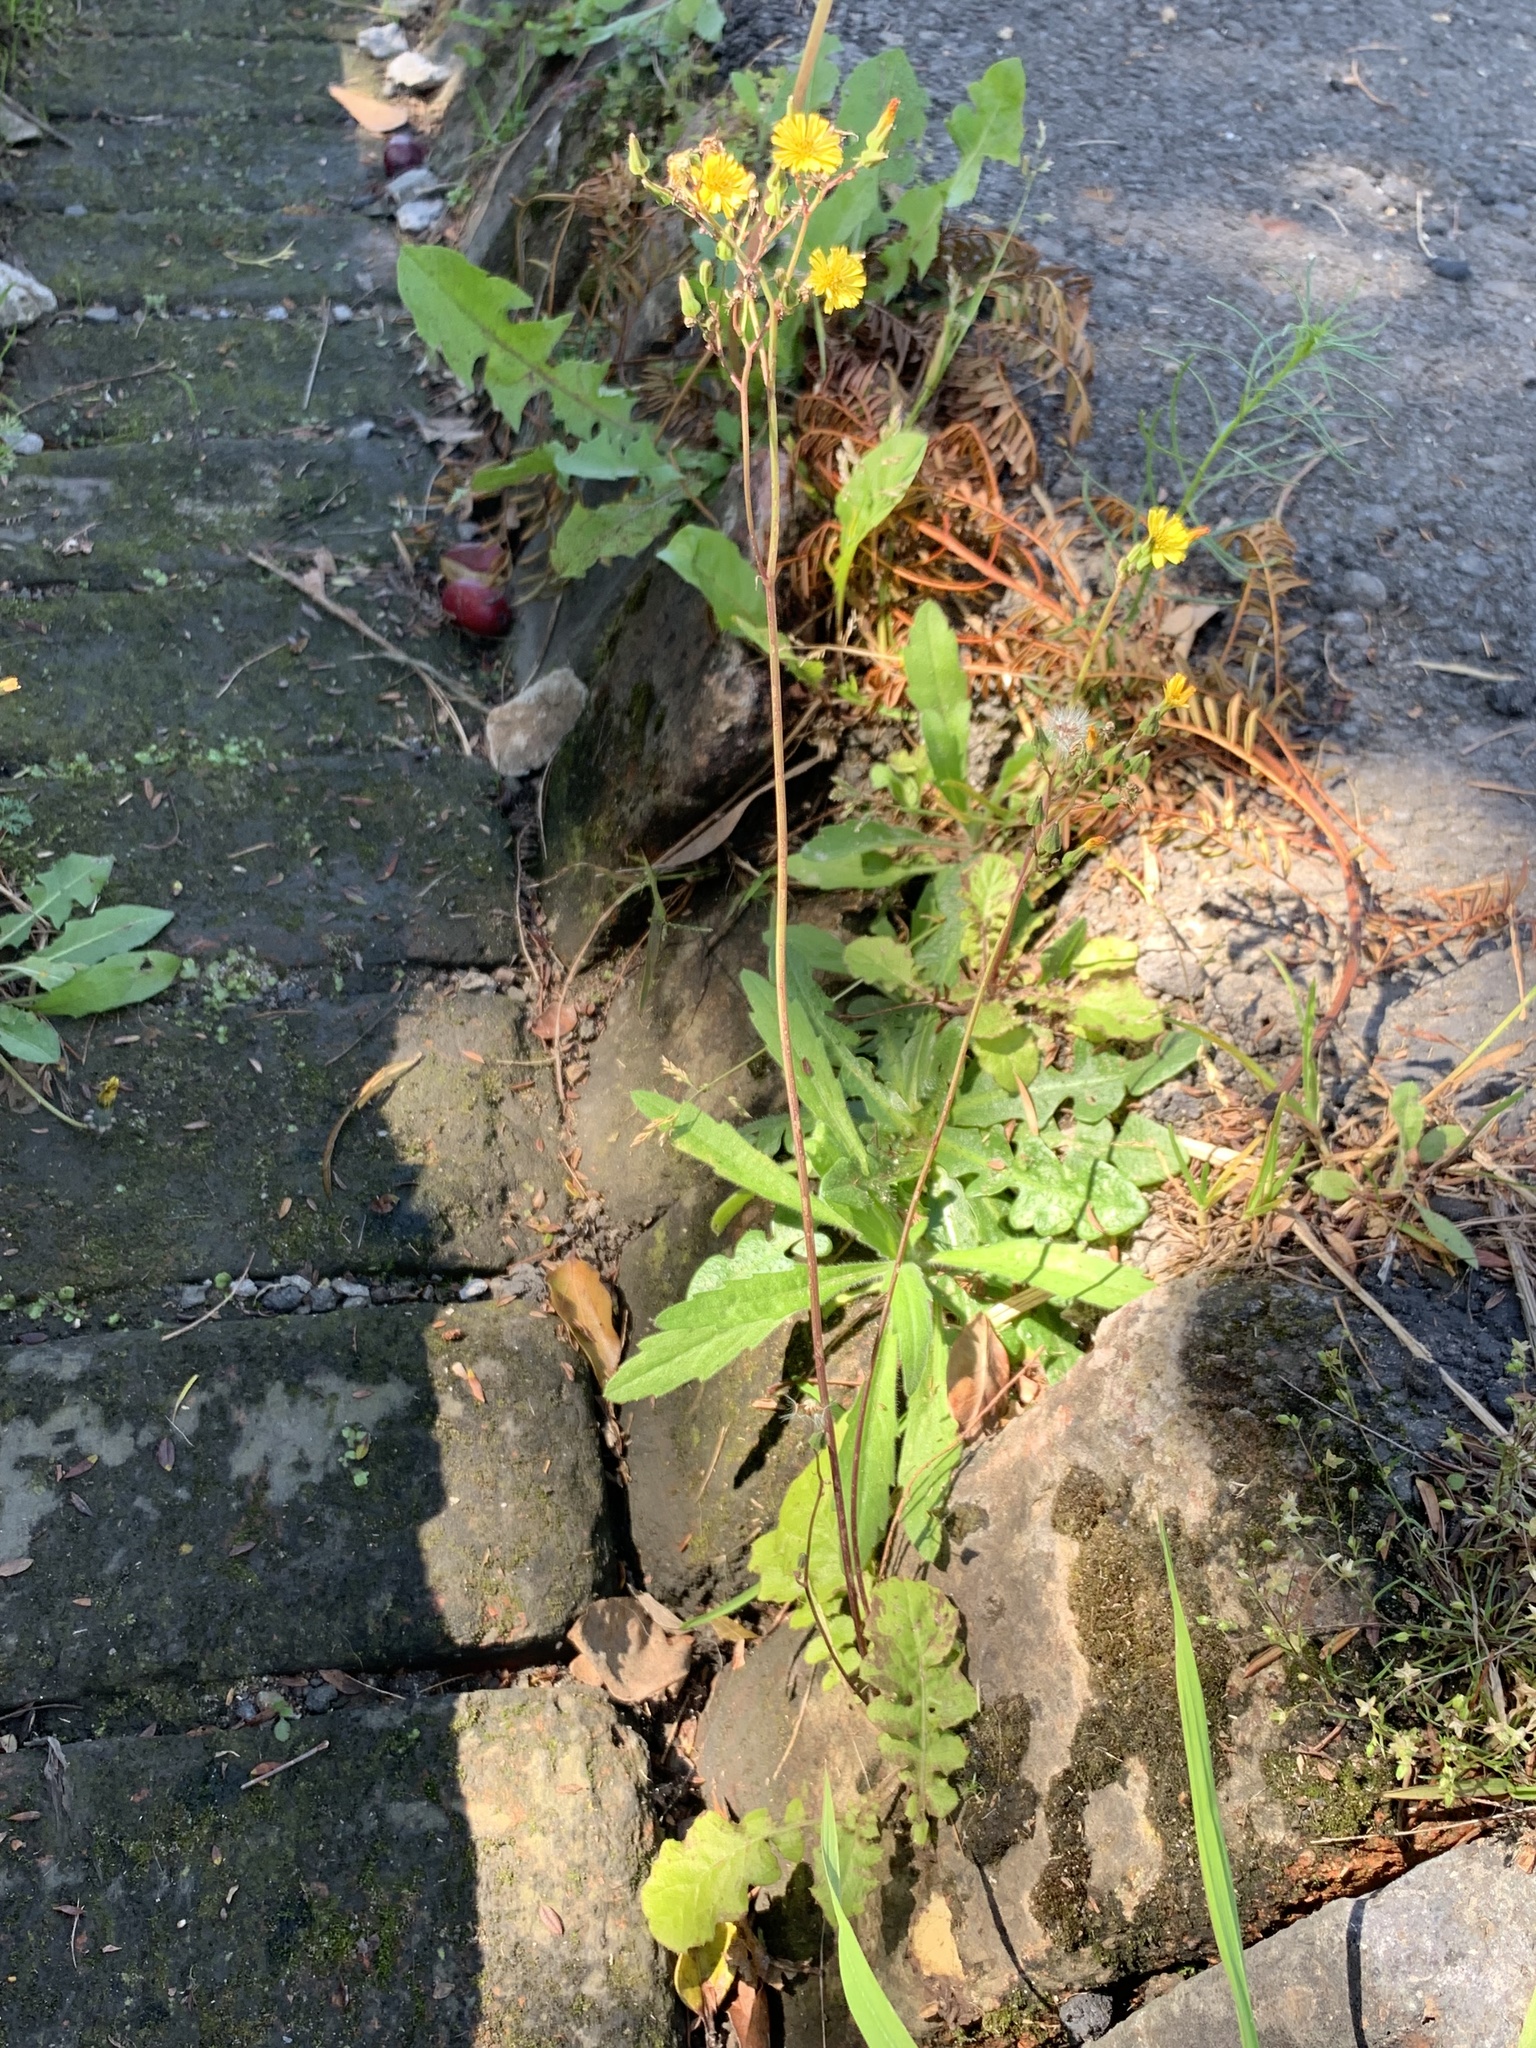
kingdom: Plantae
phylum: Tracheophyta
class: Magnoliopsida
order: Asterales
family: Asteraceae
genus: Youngia
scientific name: Youngia japonica
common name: Oriental false hawksbeard
